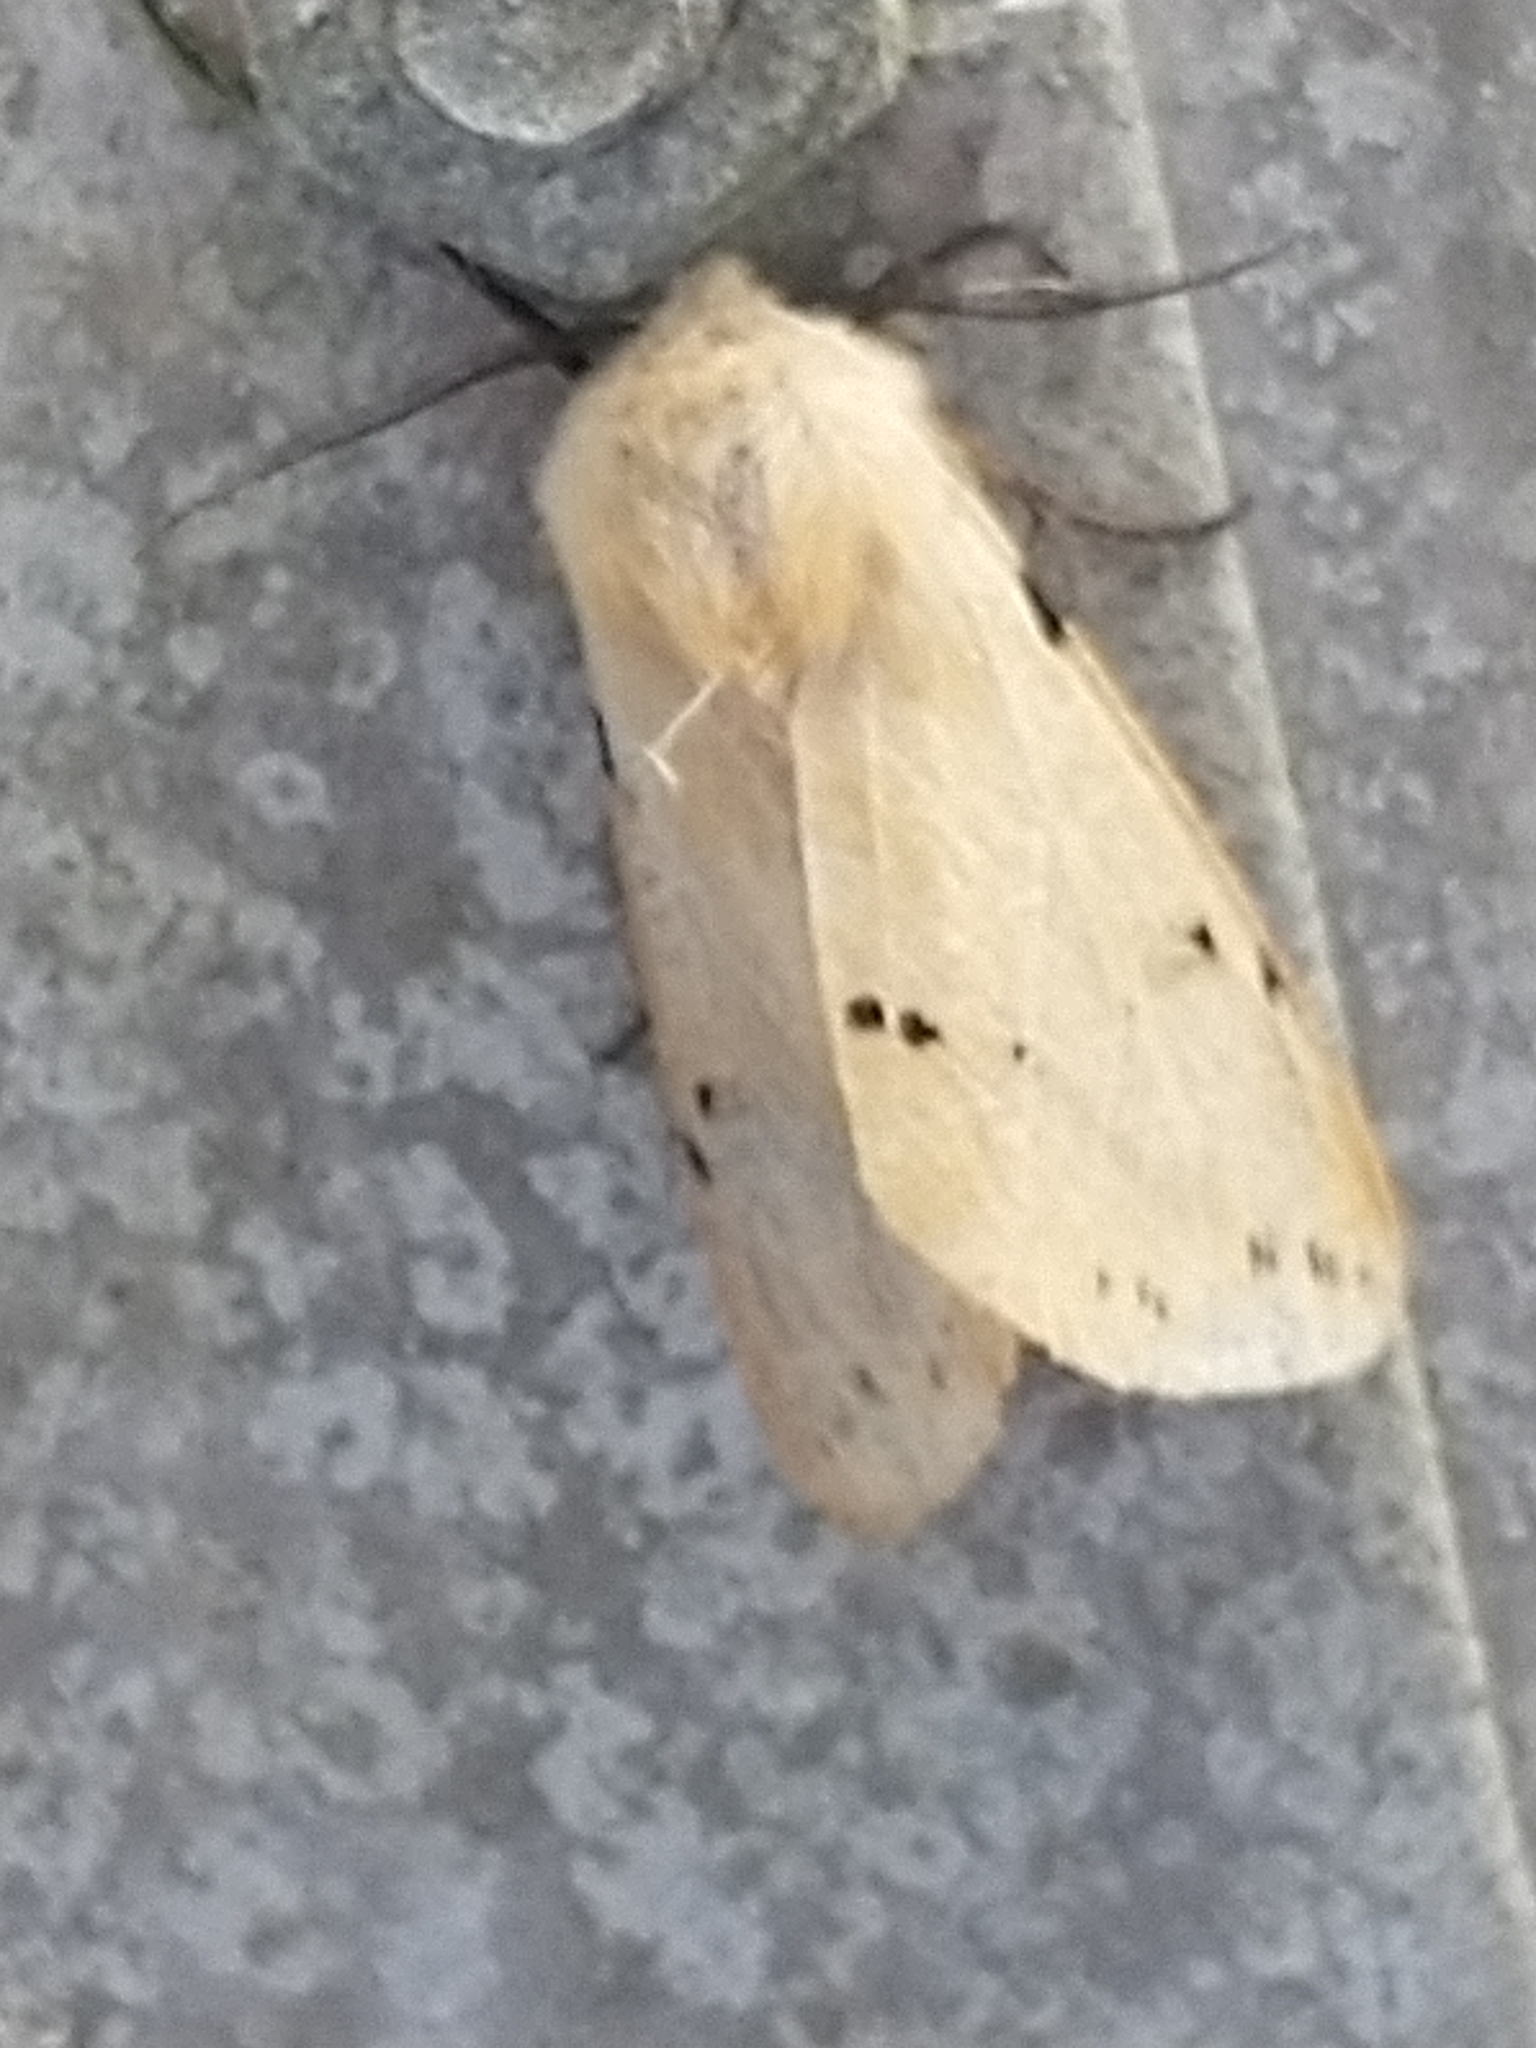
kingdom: Animalia
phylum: Arthropoda
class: Insecta
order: Lepidoptera
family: Erebidae
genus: Spilarctia
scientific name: Spilarctia lutea
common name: Buff ermine
